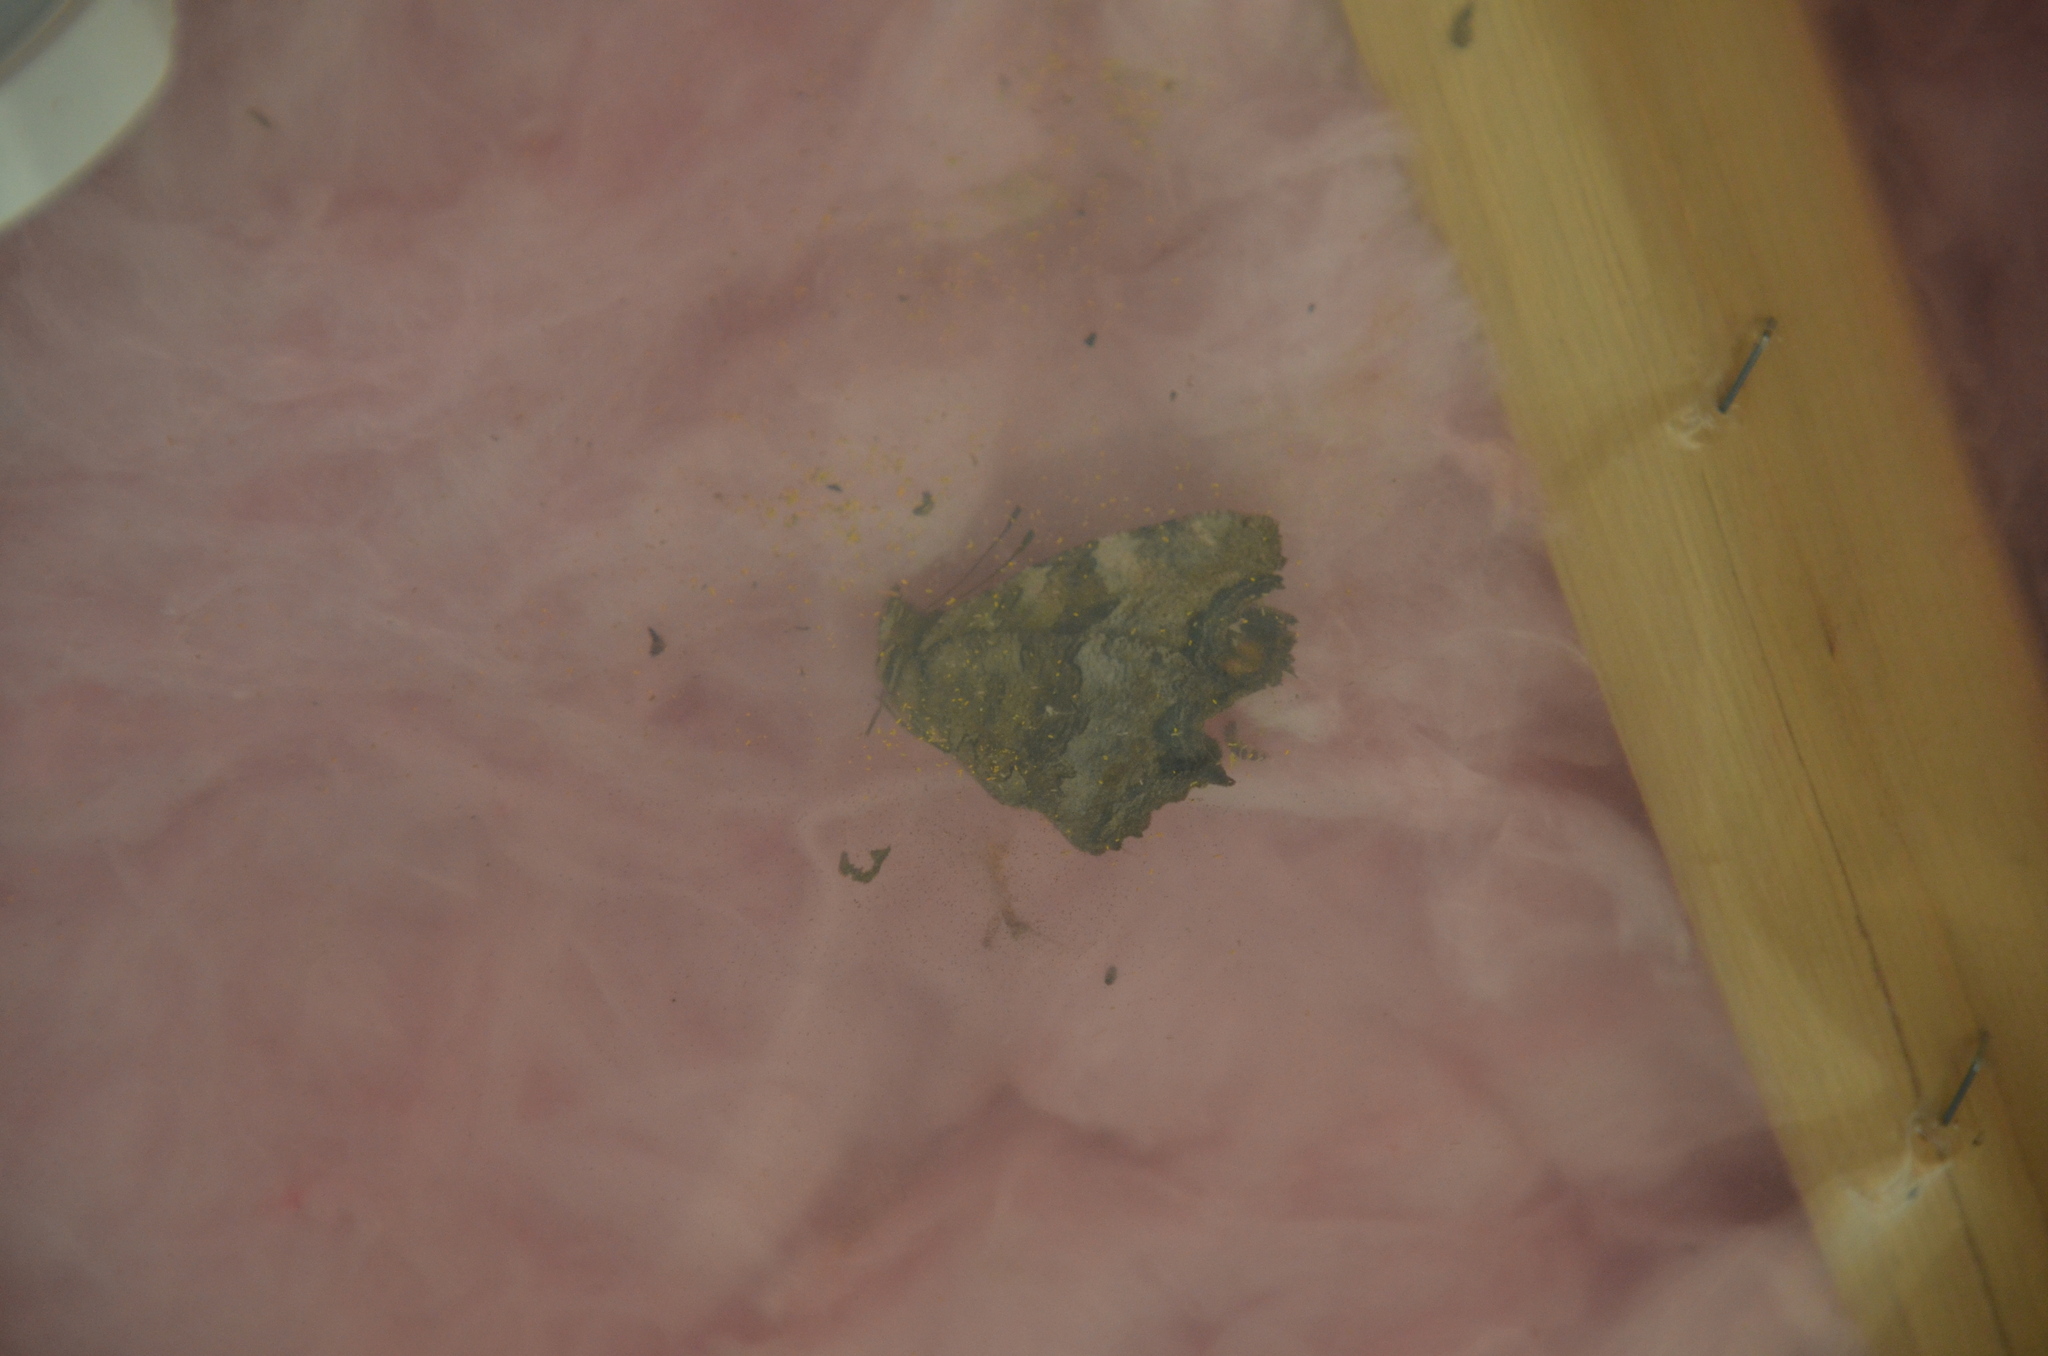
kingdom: Animalia
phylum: Arthropoda
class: Insecta
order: Lepidoptera
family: Nymphalidae
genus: Polygonia
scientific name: Polygonia vaualbum
